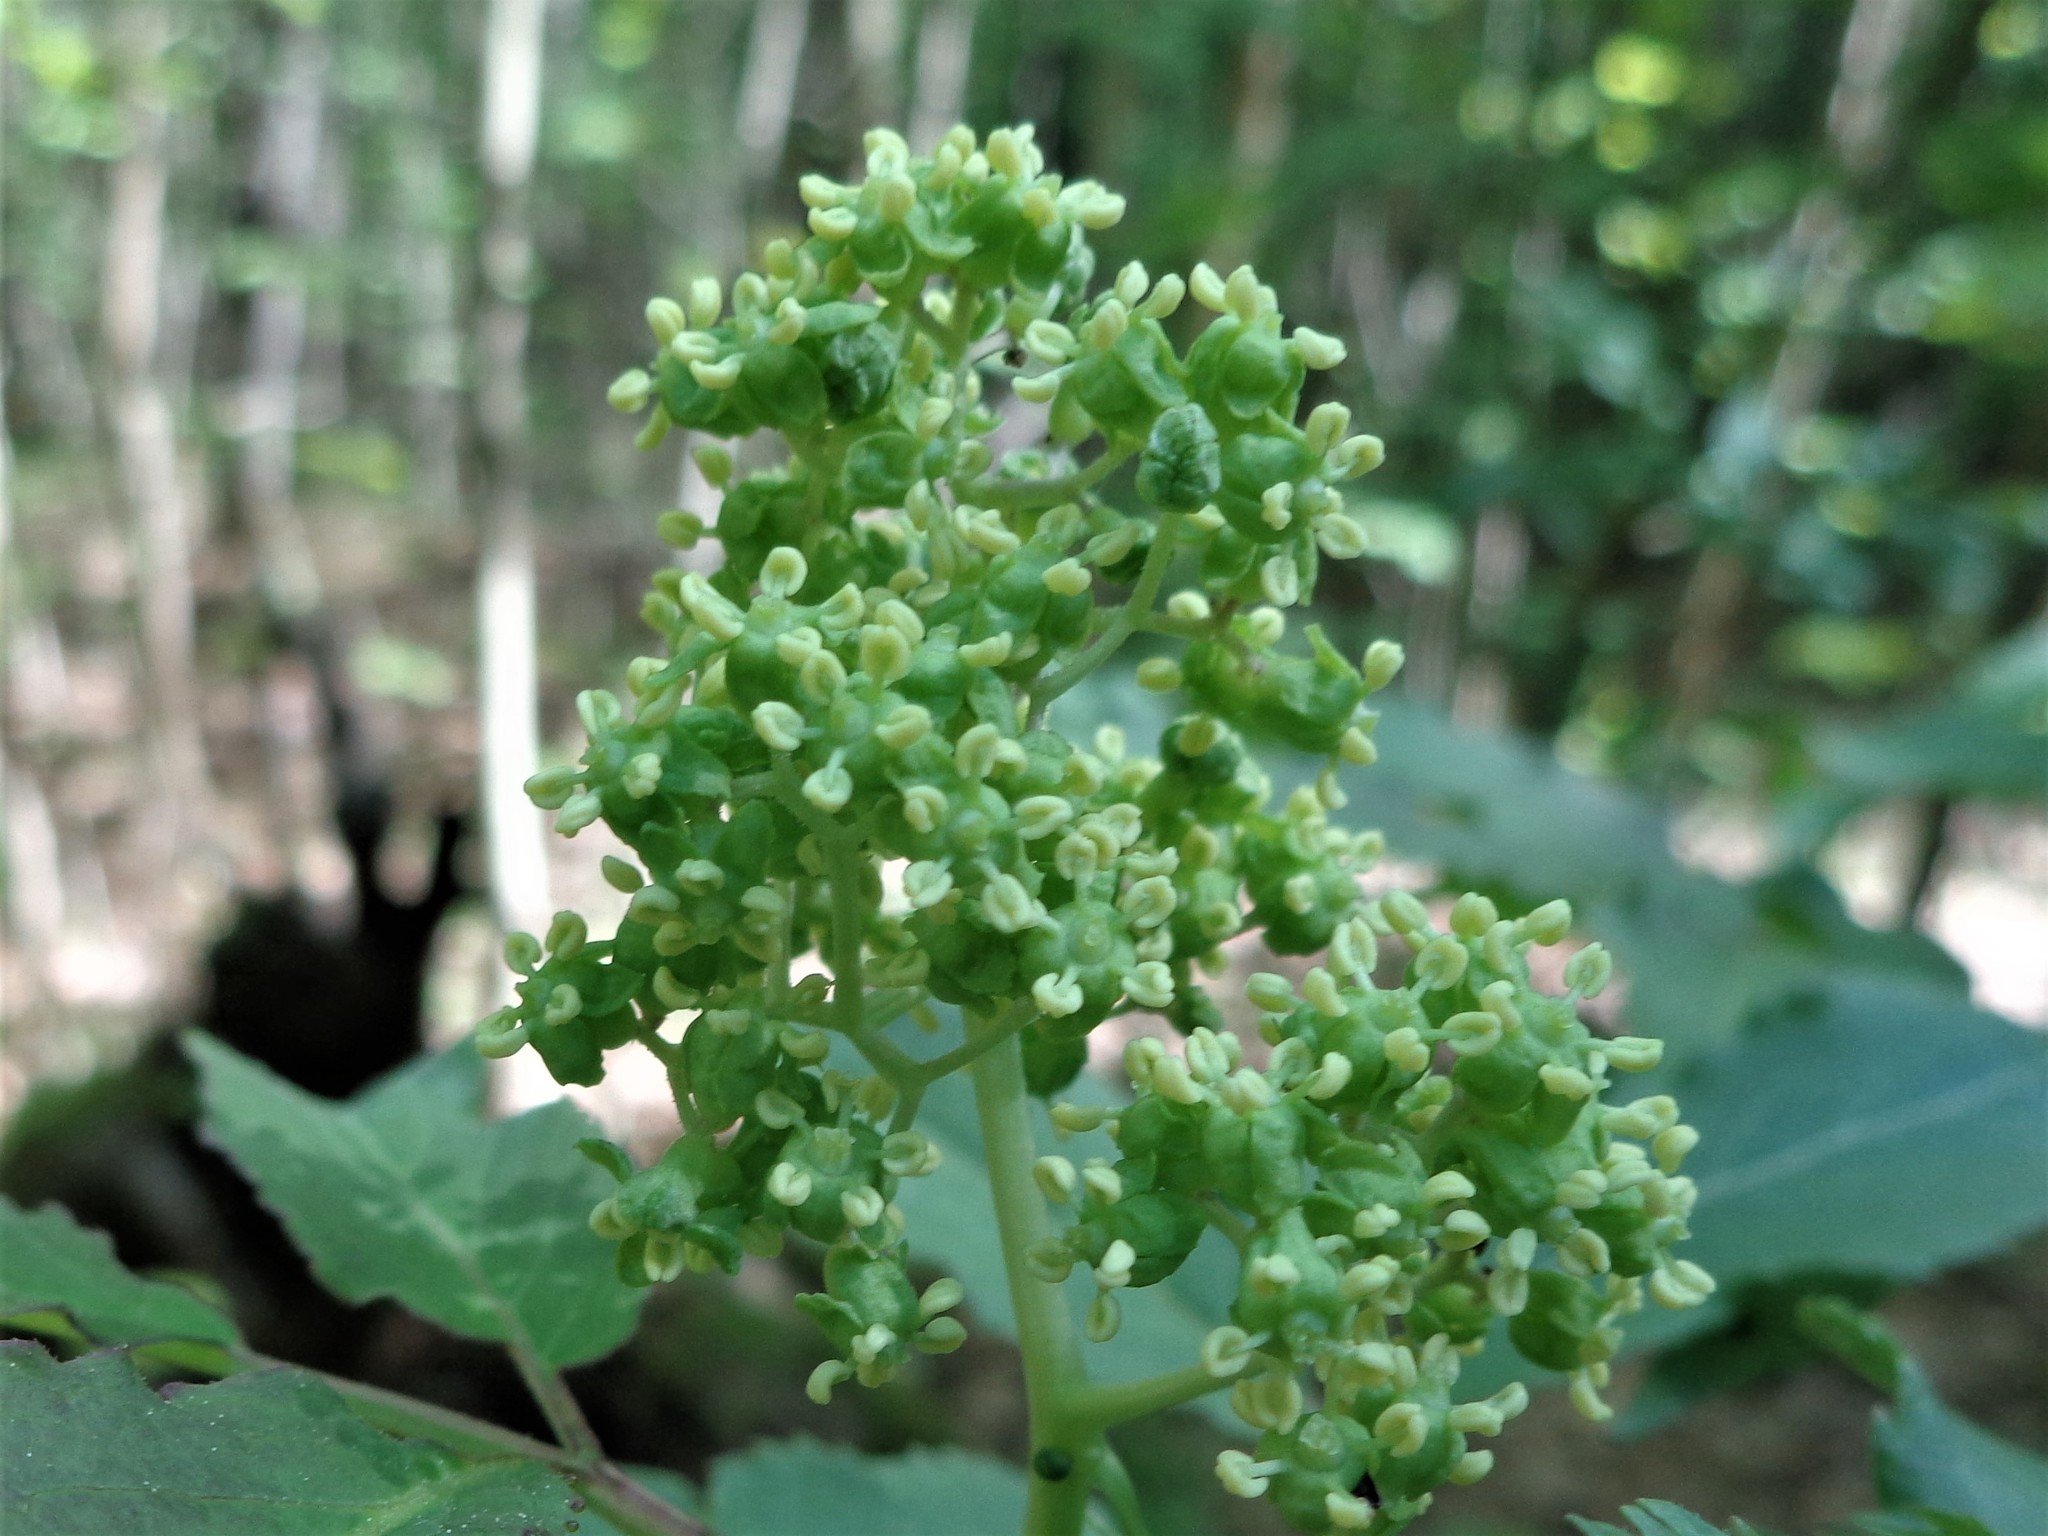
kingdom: Plantae
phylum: Tracheophyta
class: Magnoliopsida
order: Dipsacales
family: Viburnaceae
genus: Sambucus
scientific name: Sambucus racemosa
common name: Red-berried elder
